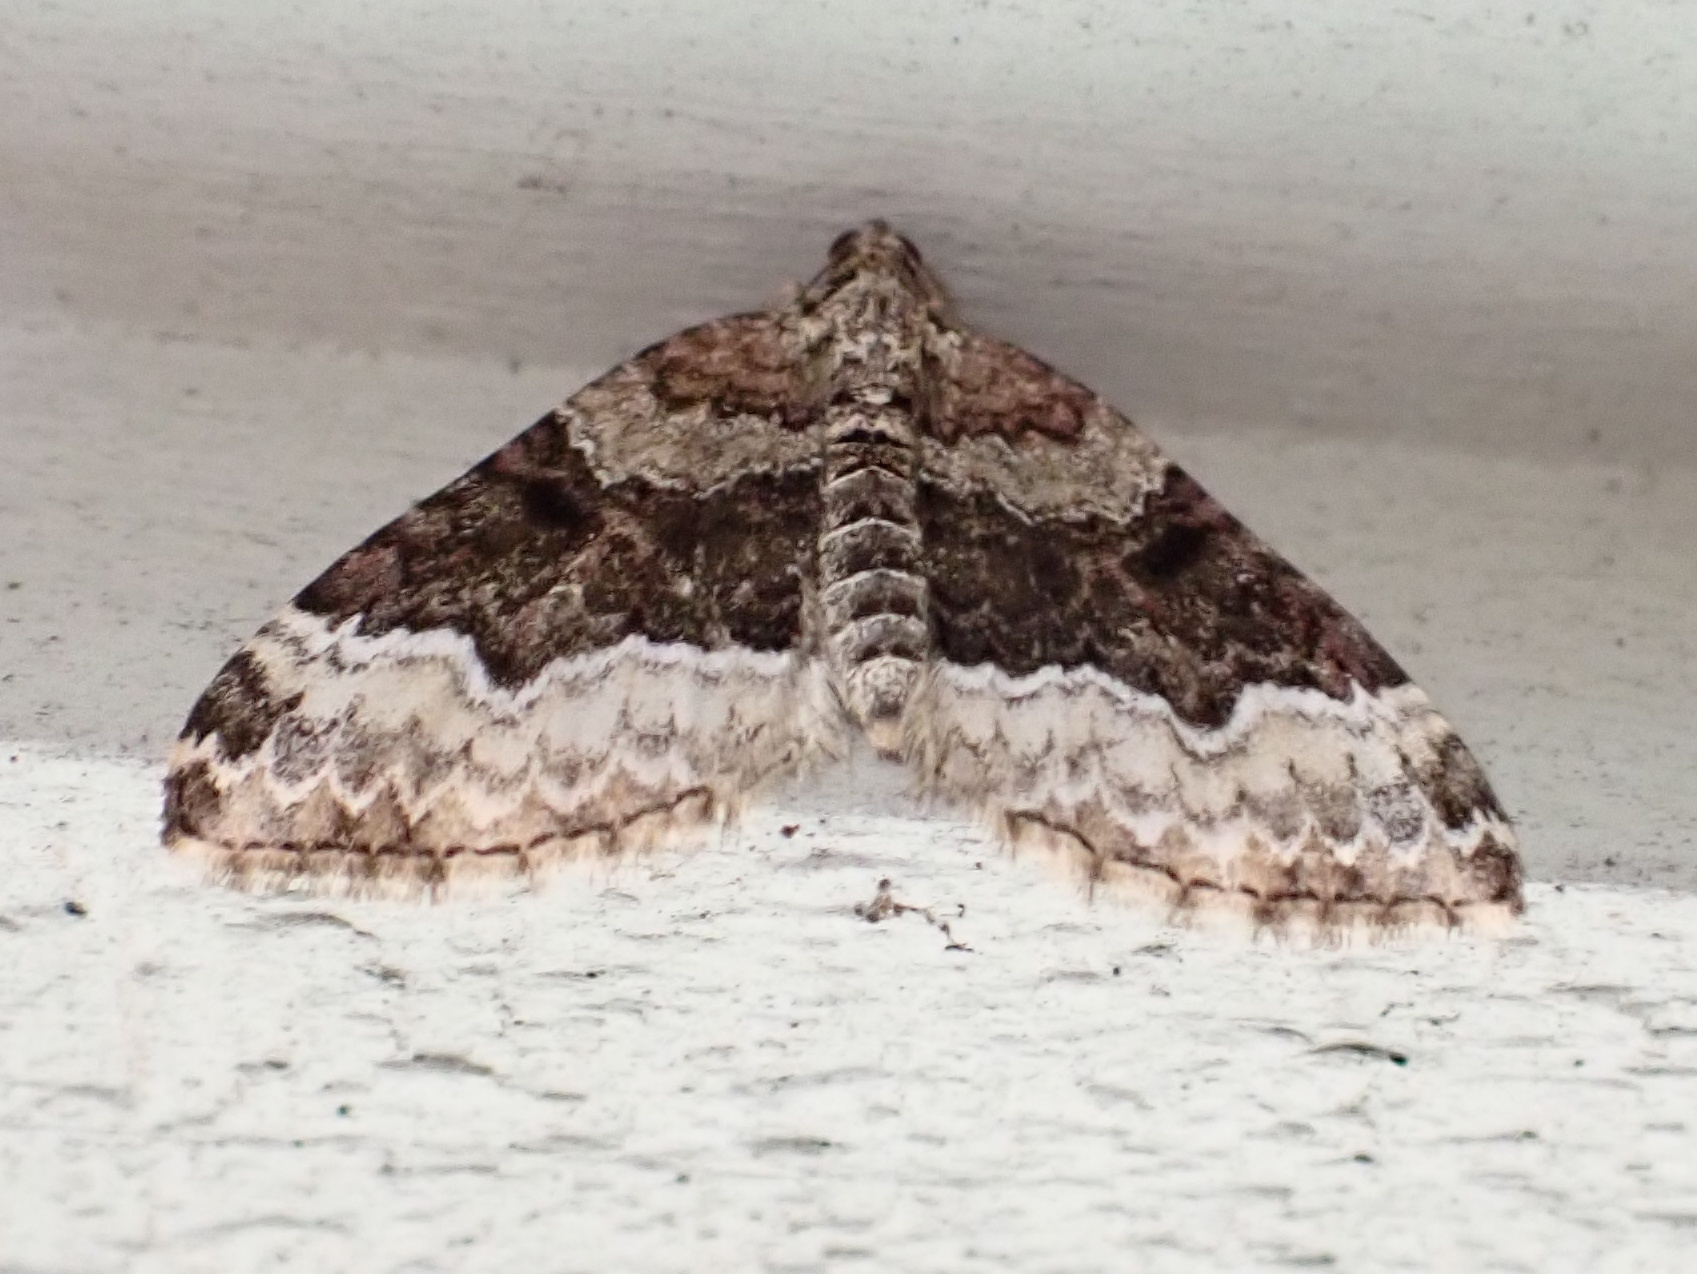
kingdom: Animalia
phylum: Arthropoda
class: Insecta
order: Lepidoptera
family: Geometridae
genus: Euphyia
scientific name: Euphyia intermediata
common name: Sharp-angled carpet
